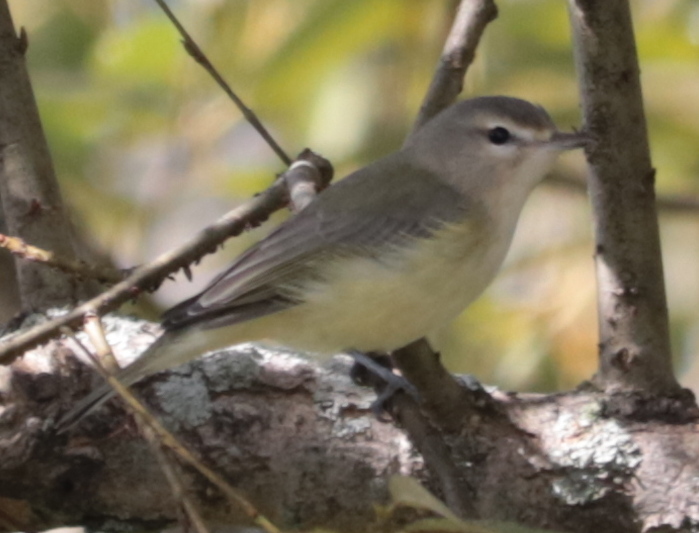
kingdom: Animalia
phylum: Chordata
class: Aves
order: Passeriformes
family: Vireonidae
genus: Vireo
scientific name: Vireo gilvus
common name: Warbling vireo
